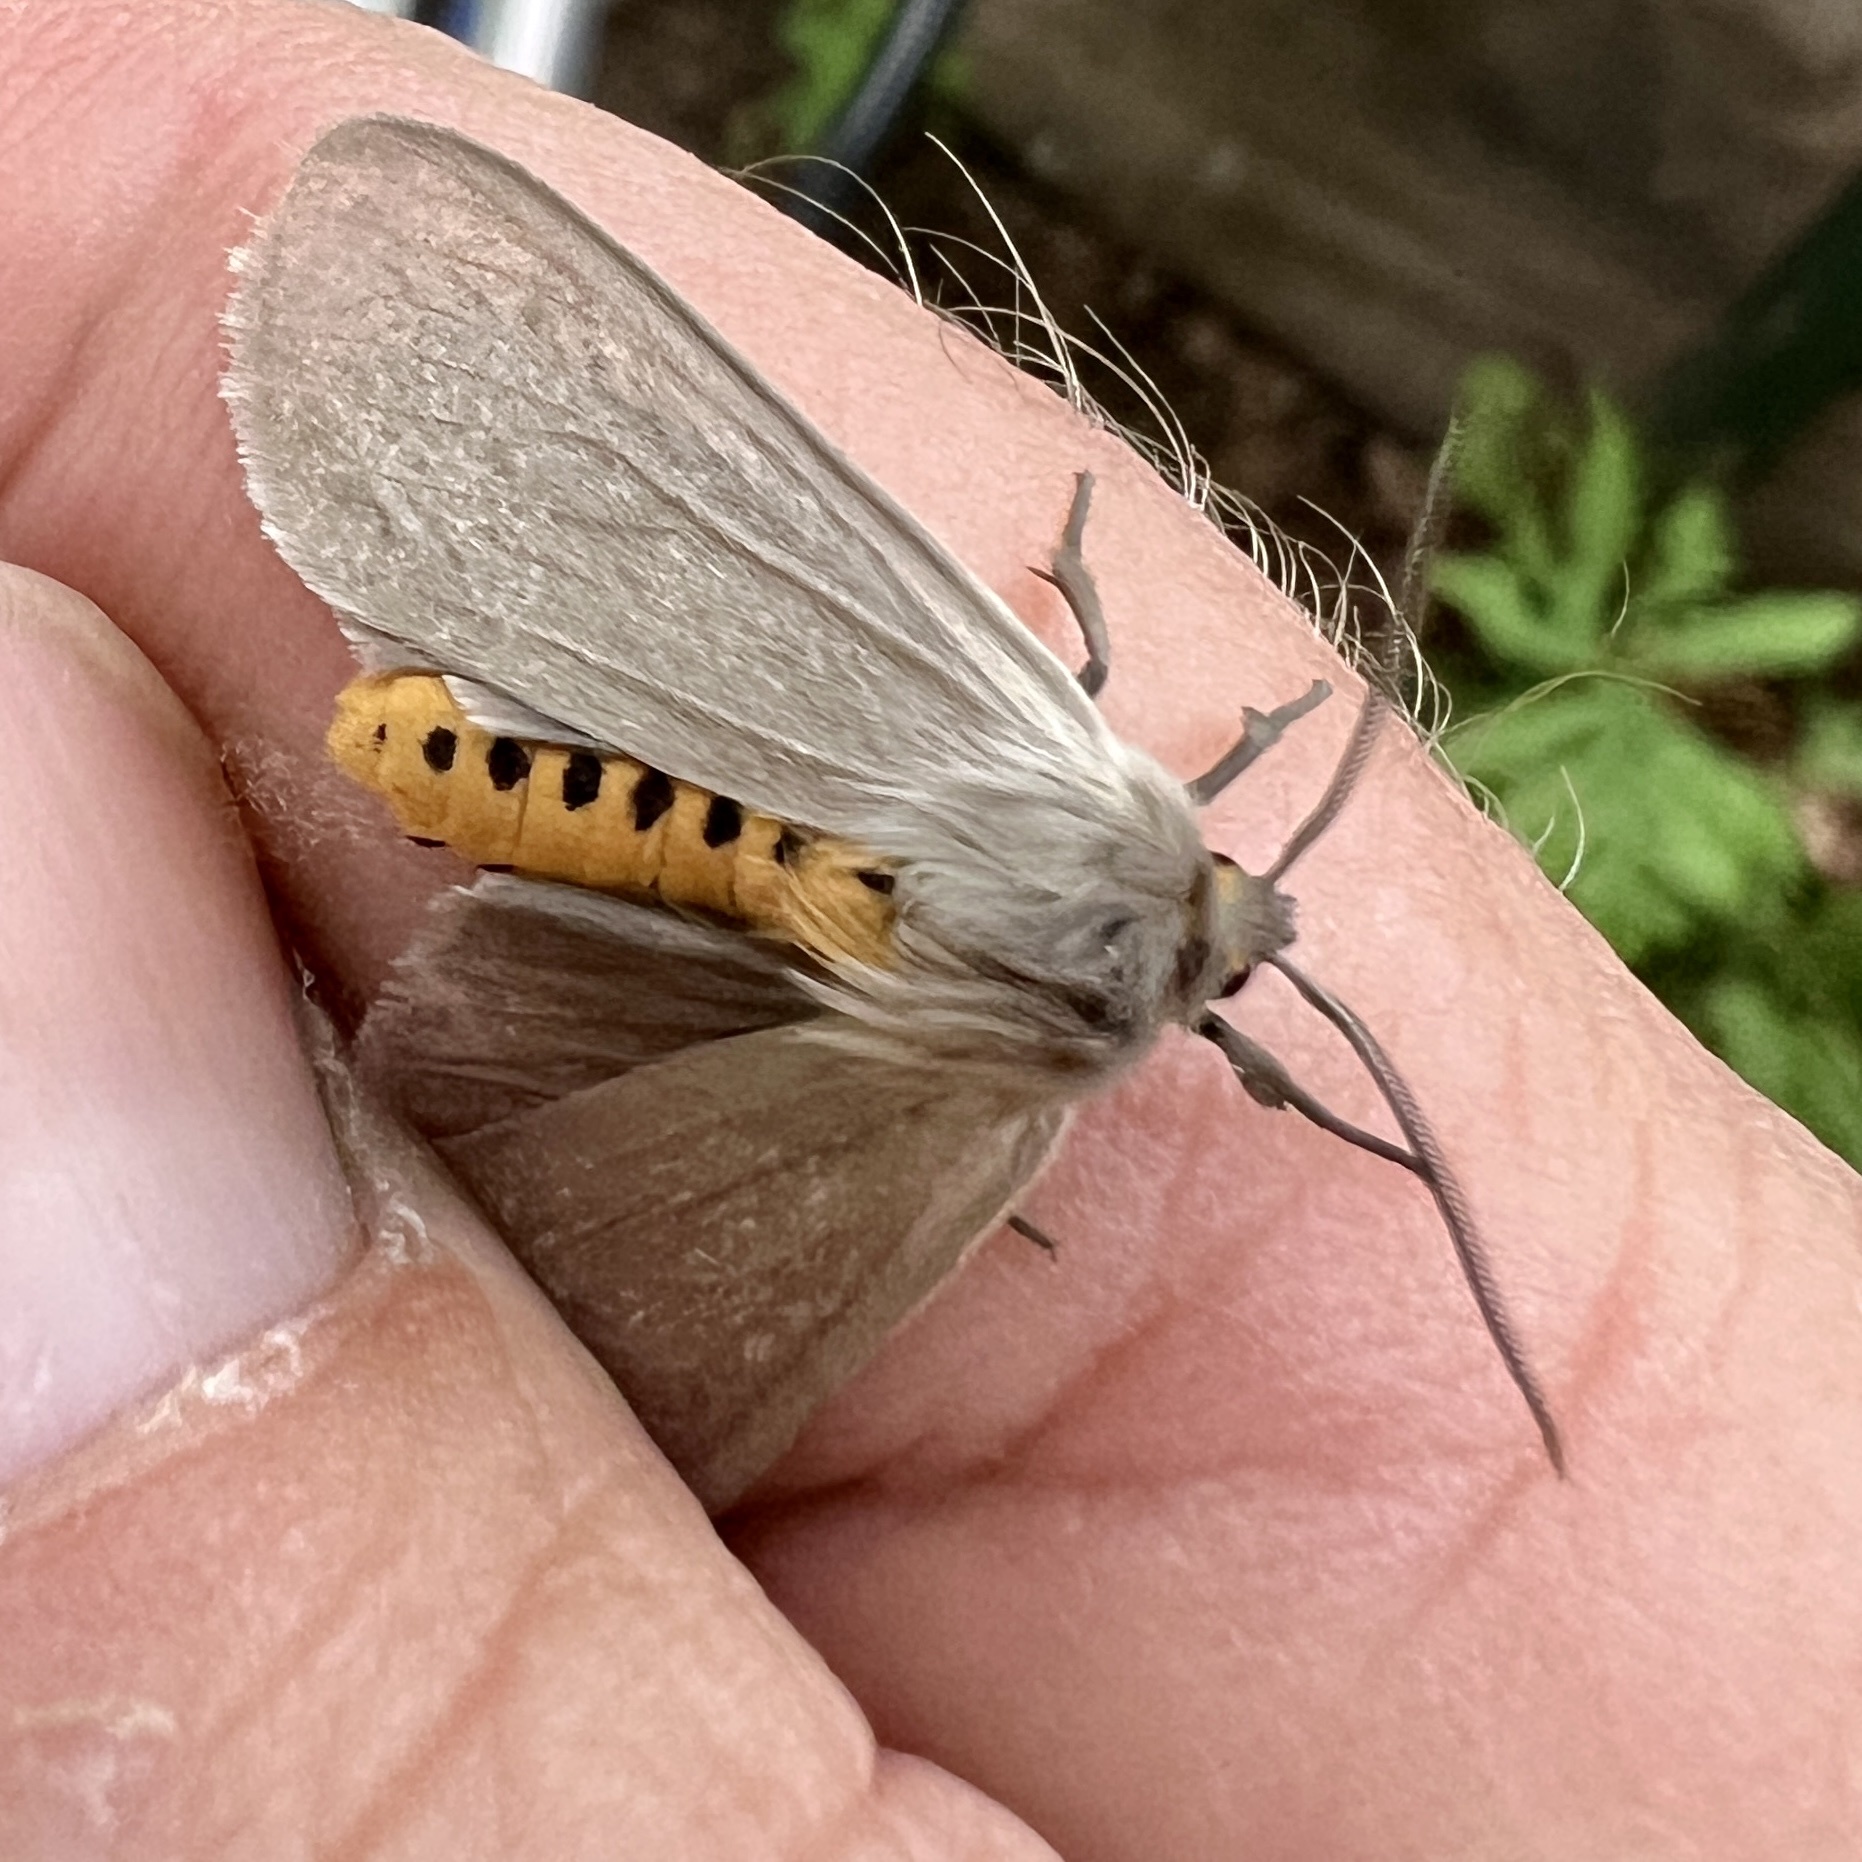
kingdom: Animalia
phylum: Arthropoda
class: Insecta
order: Lepidoptera
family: Erebidae
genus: Euchaetes
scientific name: Euchaetes egle
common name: Milkweed tussock moth
